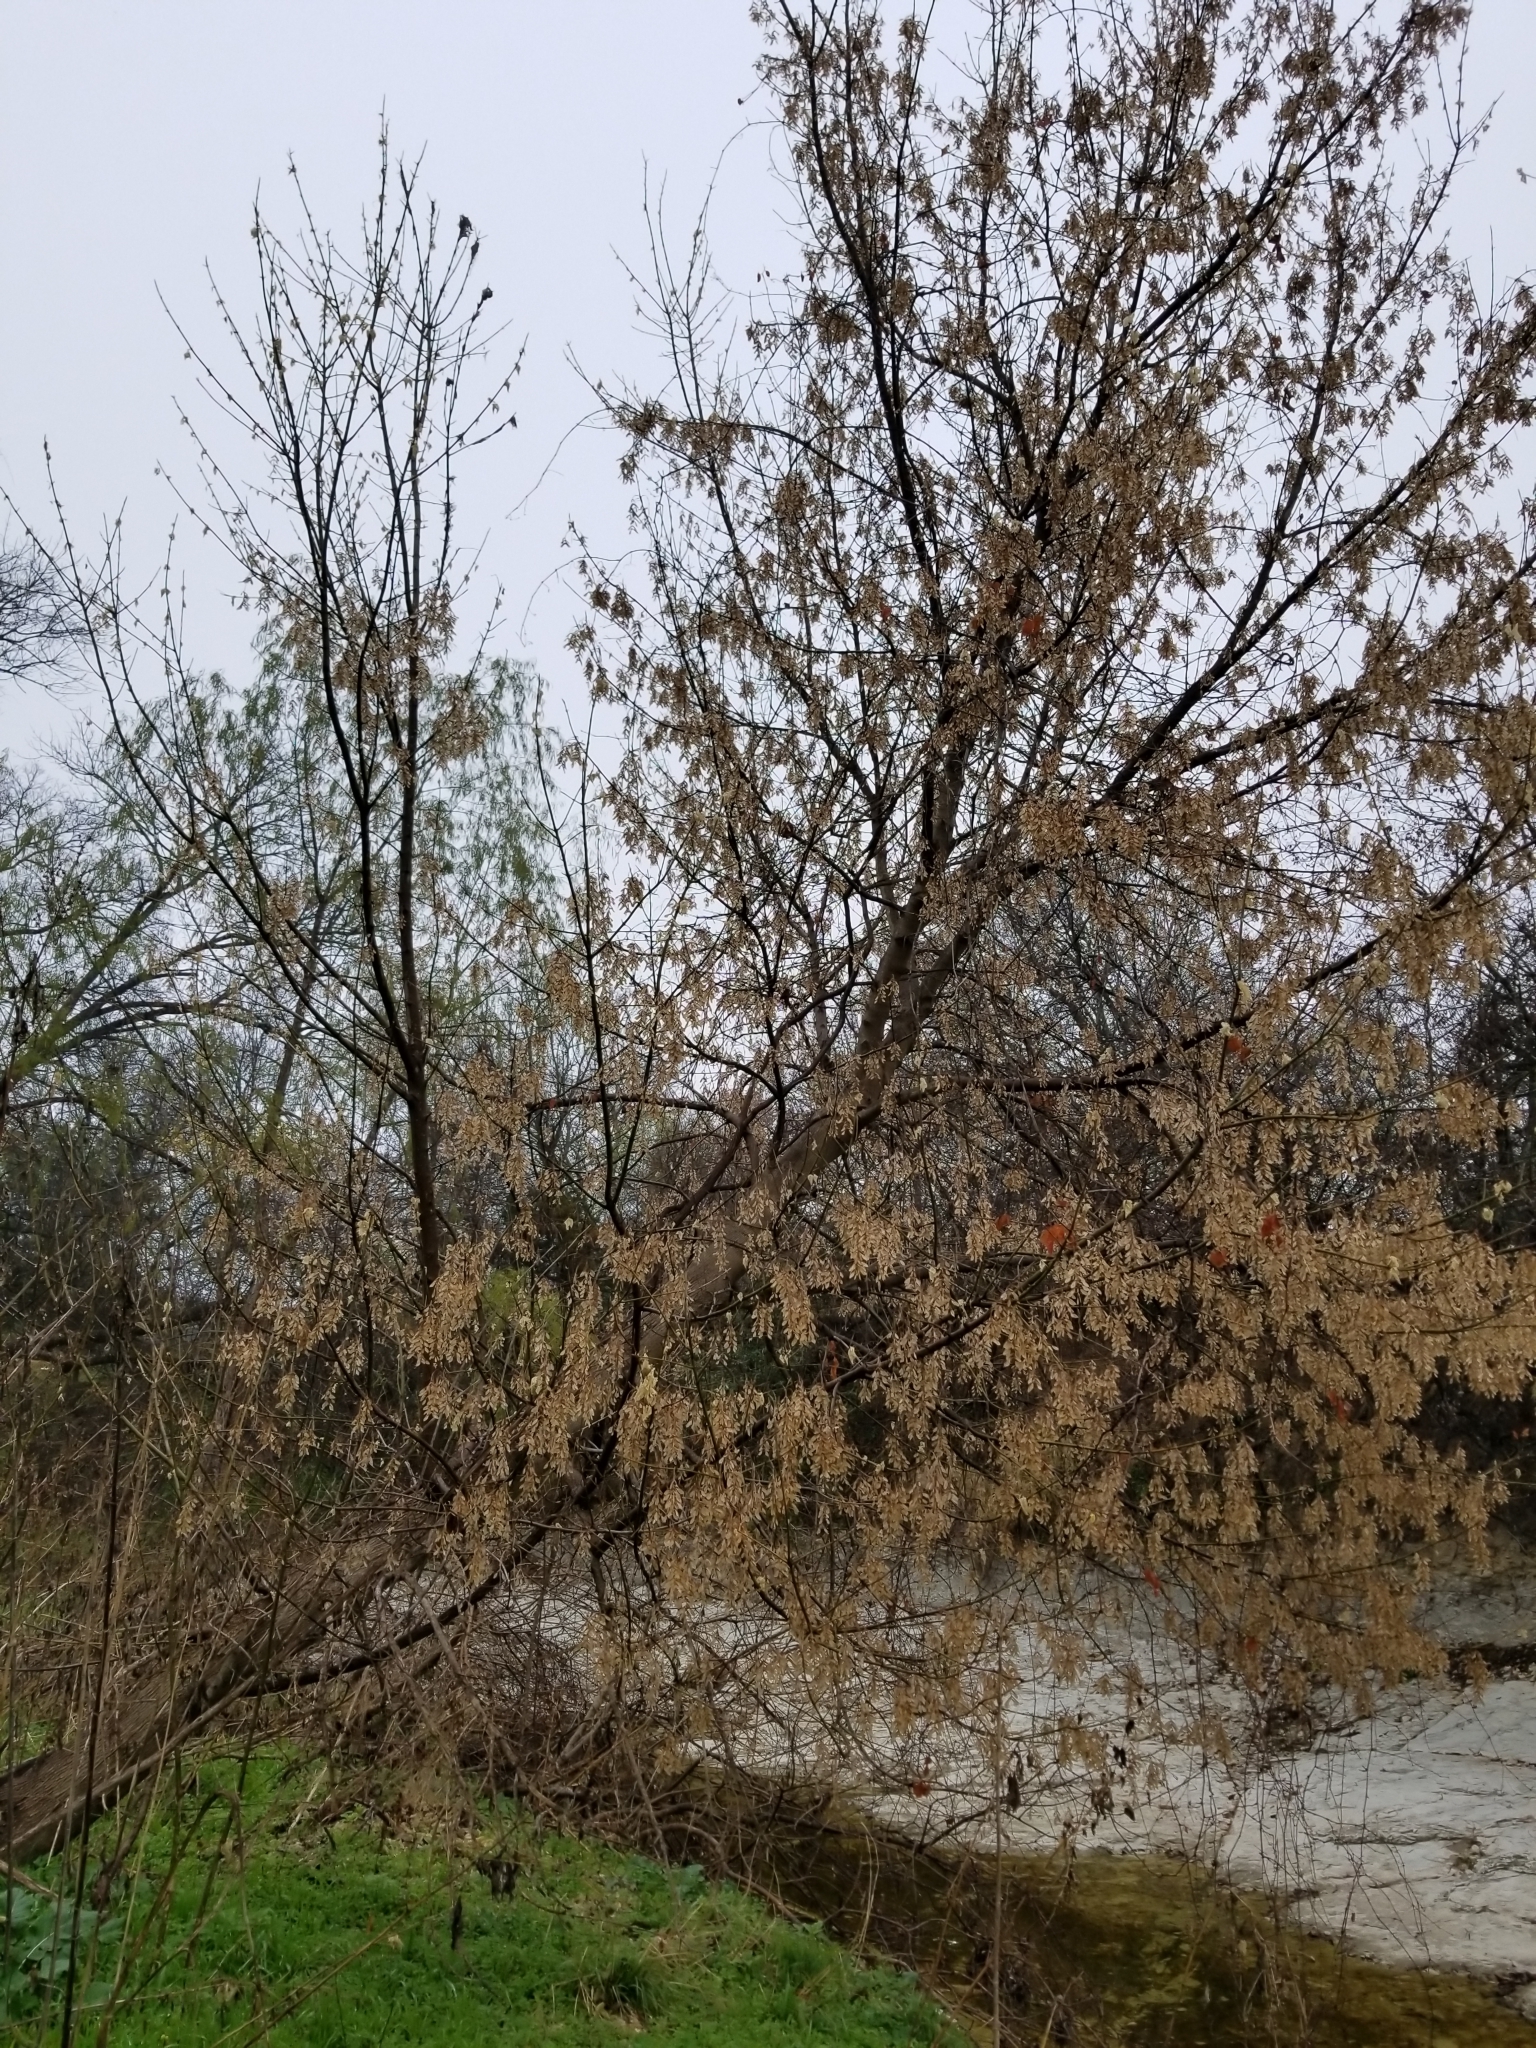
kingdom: Plantae
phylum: Tracheophyta
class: Magnoliopsida
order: Sapindales
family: Sapindaceae
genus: Acer
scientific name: Acer negundo
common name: Ashleaf maple
